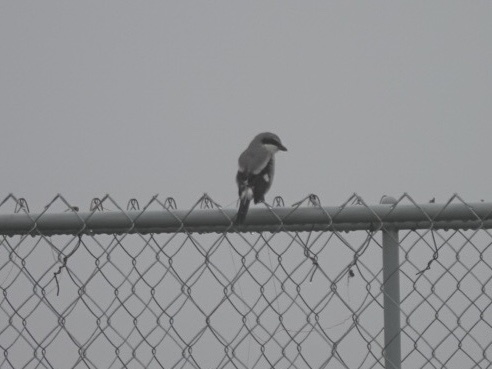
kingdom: Animalia
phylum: Chordata
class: Aves
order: Passeriformes
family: Laniidae
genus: Lanius
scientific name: Lanius ludovicianus
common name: Loggerhead shrike
